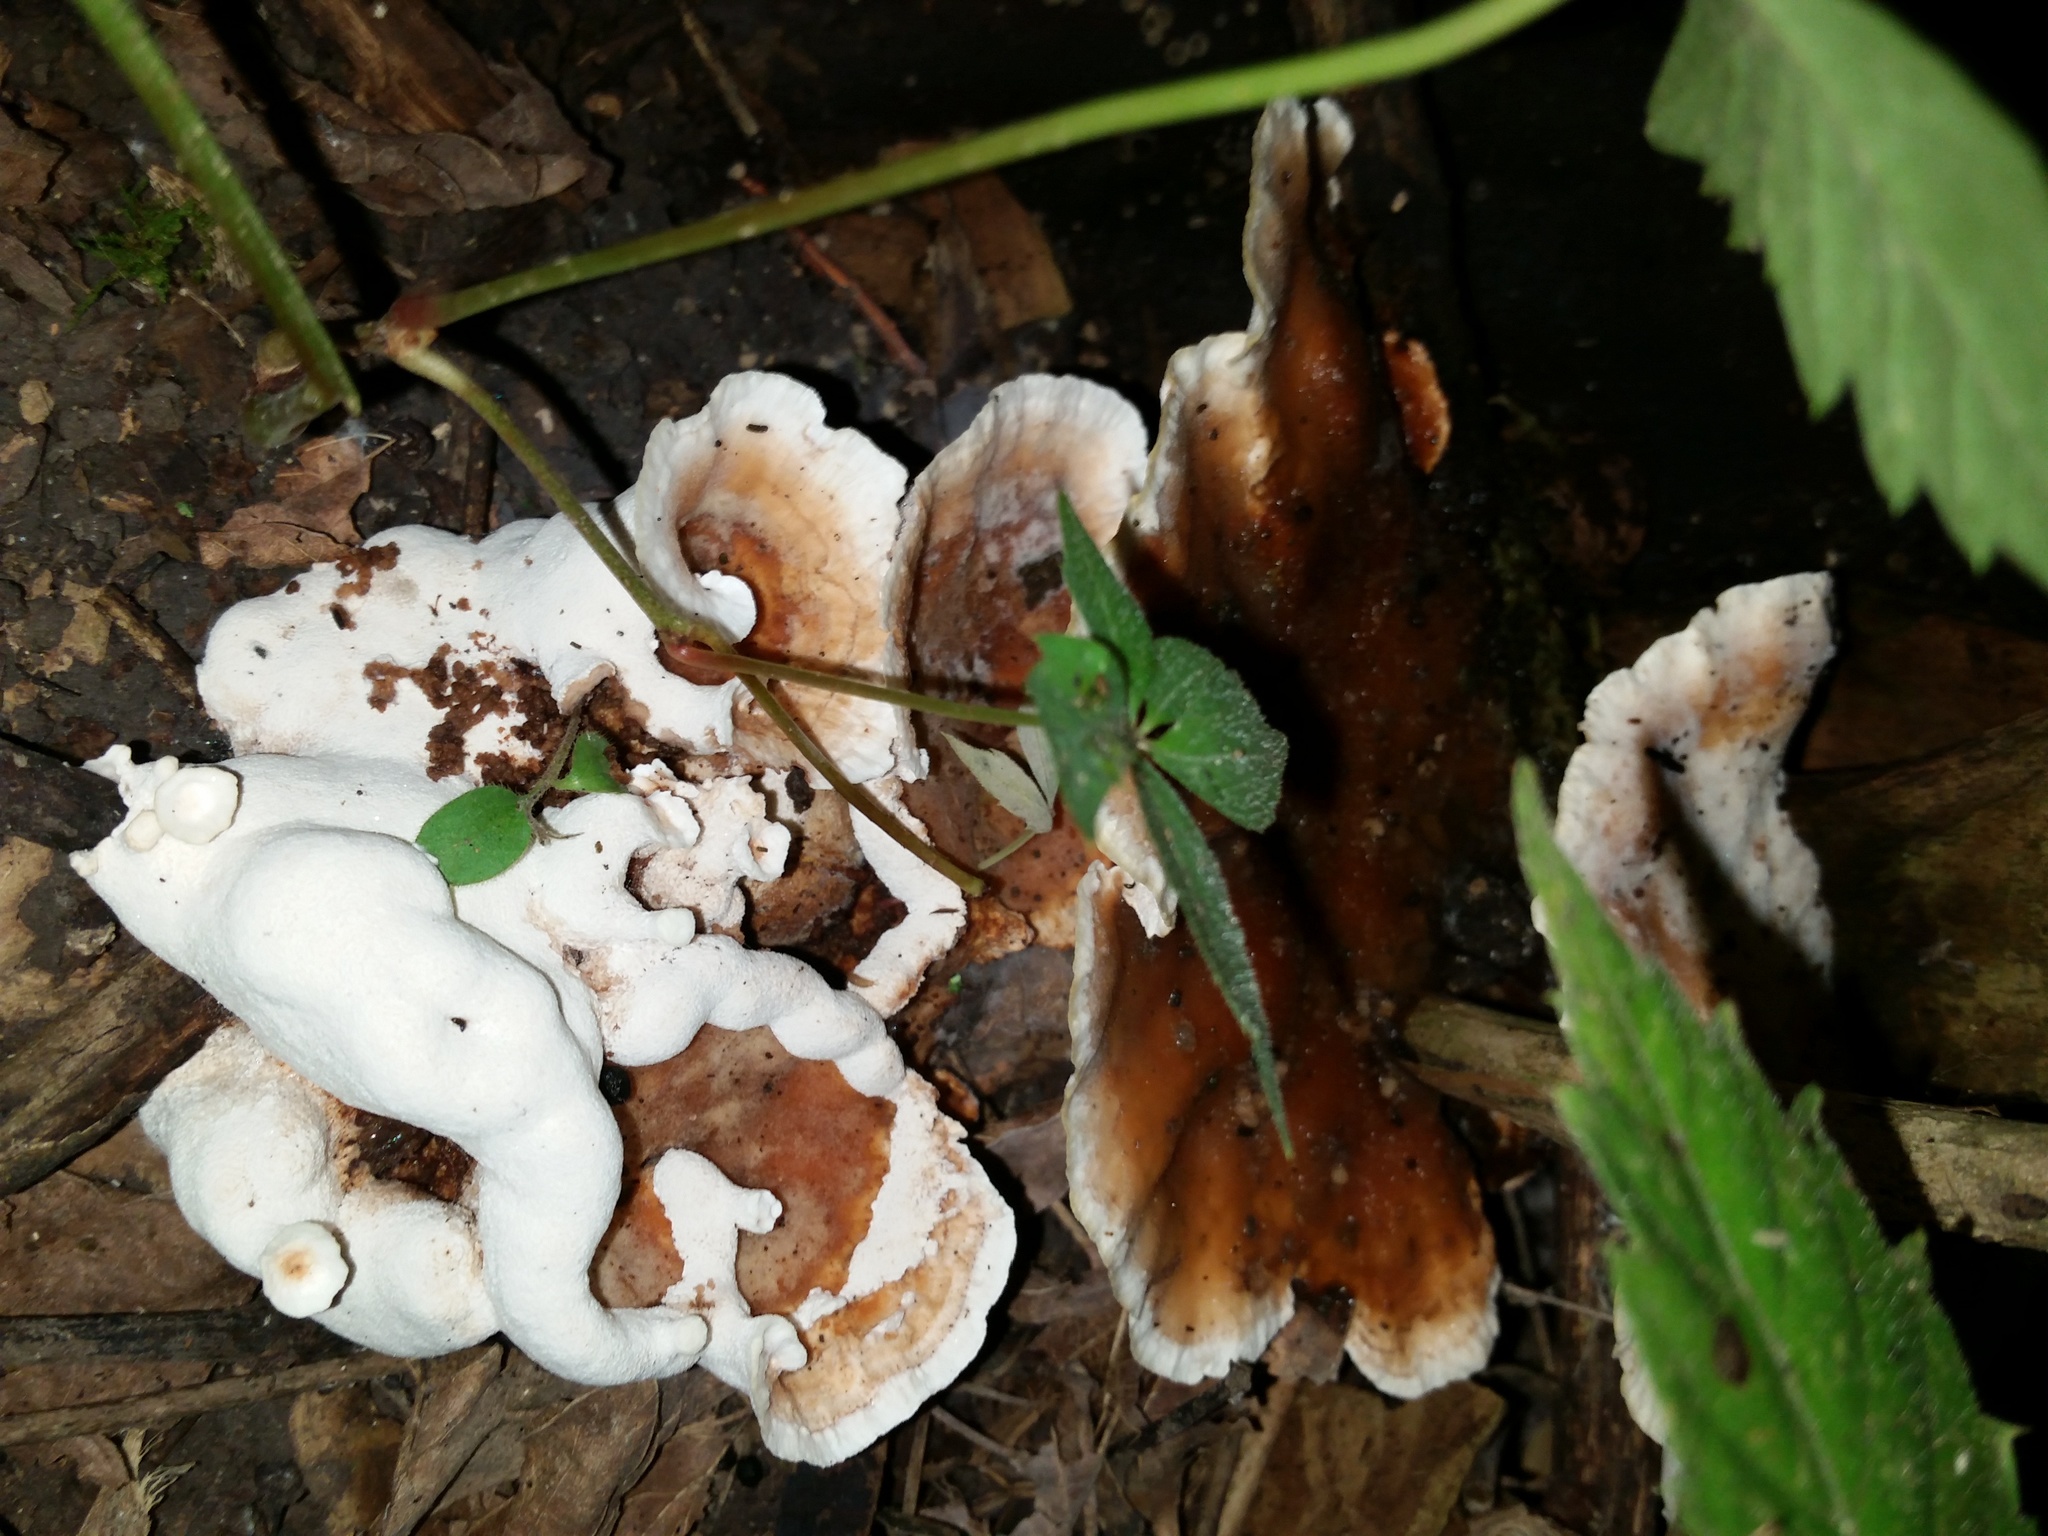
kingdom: Fungi
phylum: Basidiomycota
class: Agaricomycetes
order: Polyporales
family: Podoscyphaceae
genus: Abortiporus
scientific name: Abortiporus biennis
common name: Blushing rosette
